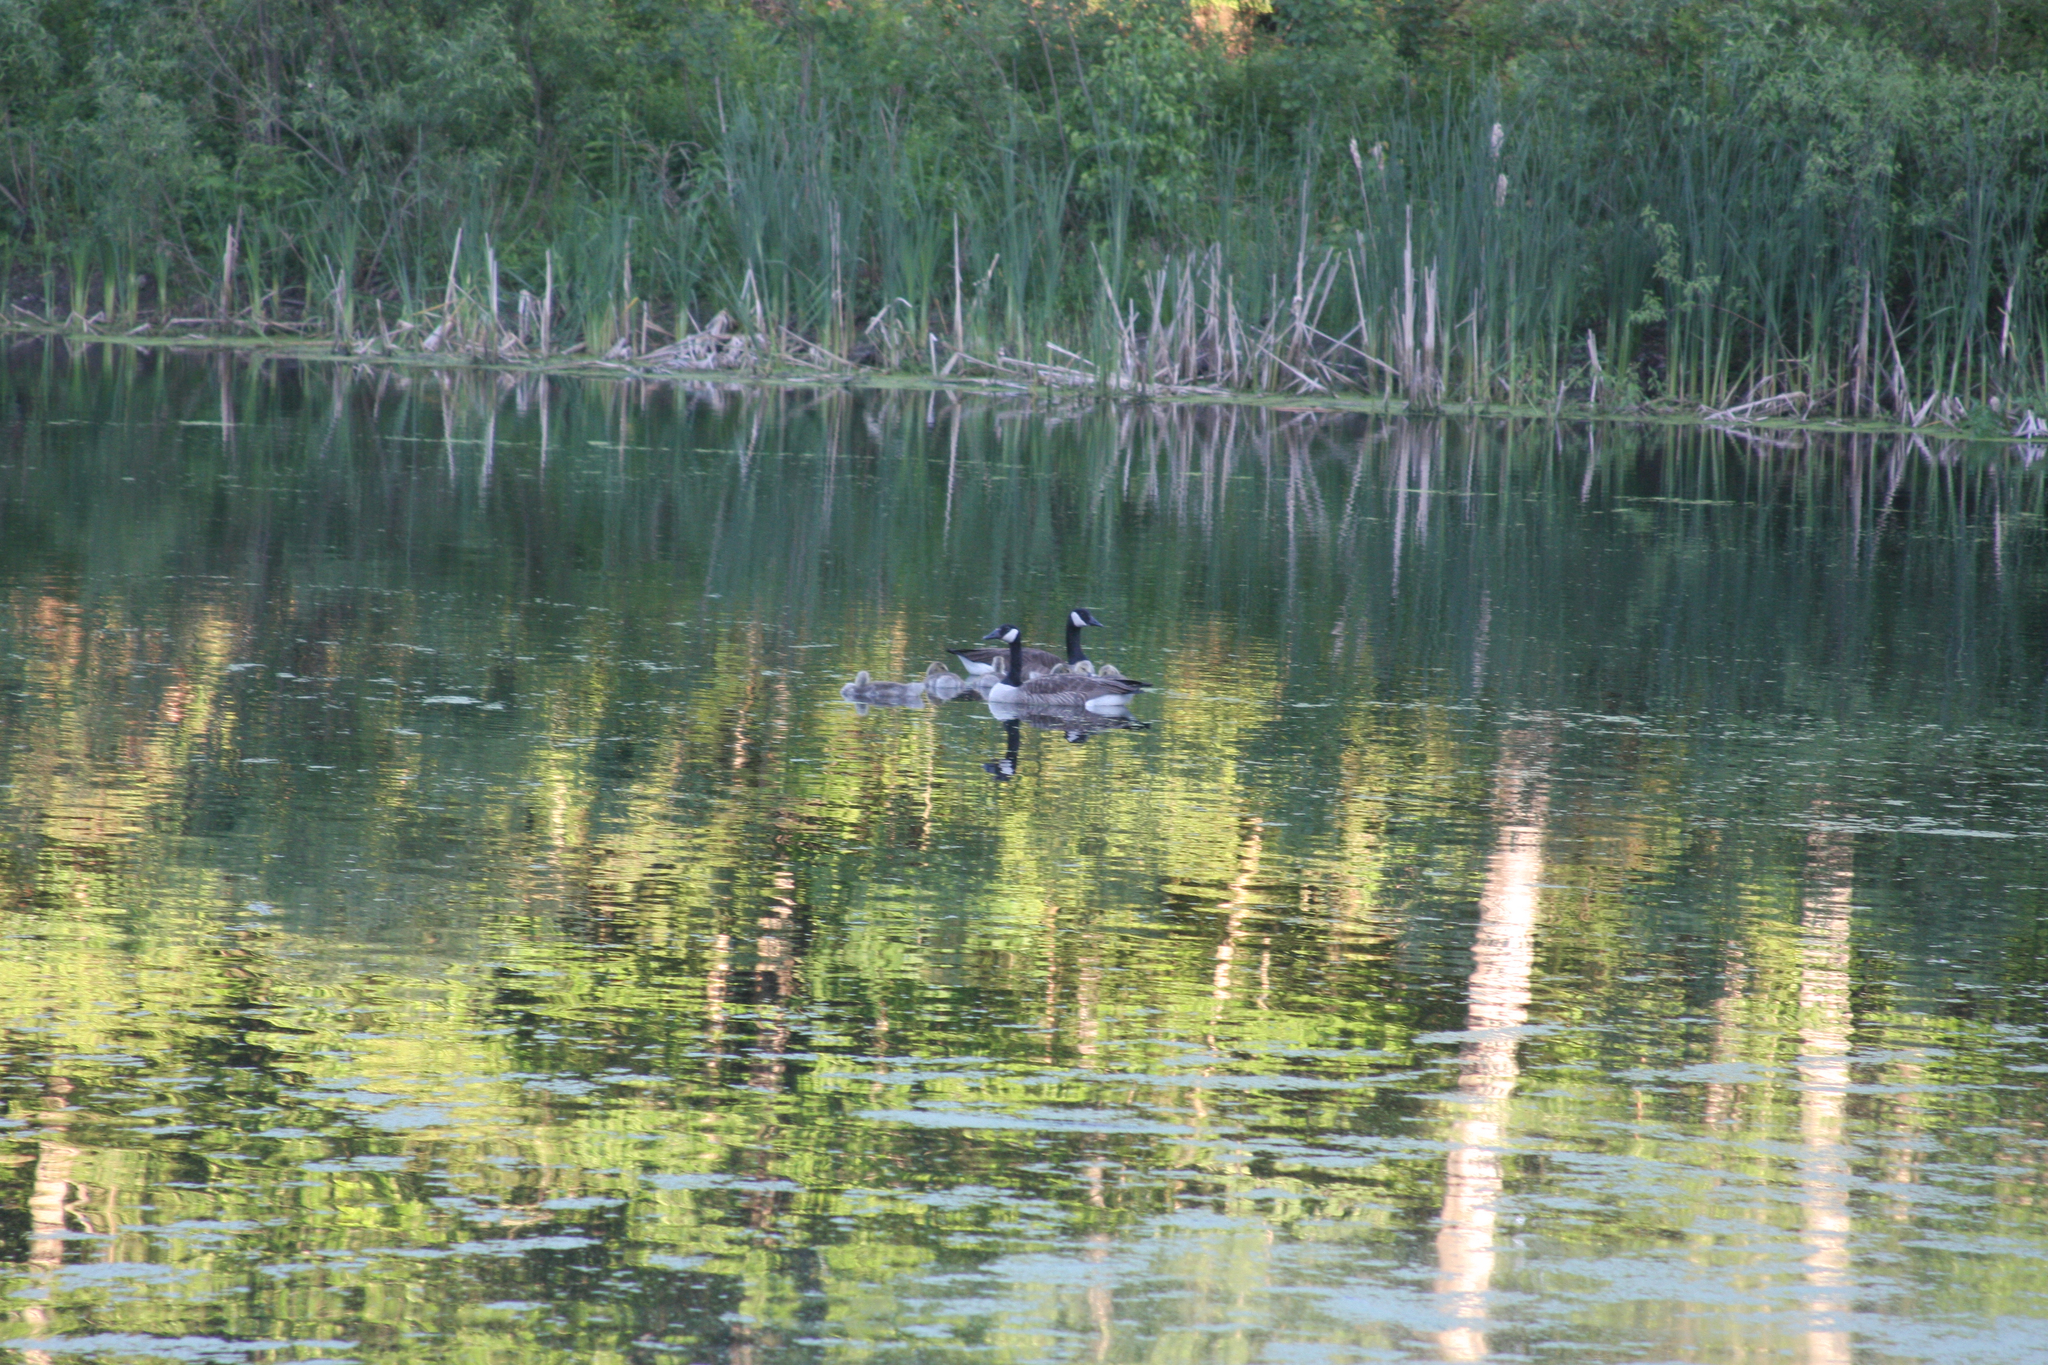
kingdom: Animalia
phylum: Chordata
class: Aves
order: Anseriformes
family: Anatidae
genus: Branta
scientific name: Branta canadensis
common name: Canada goose
